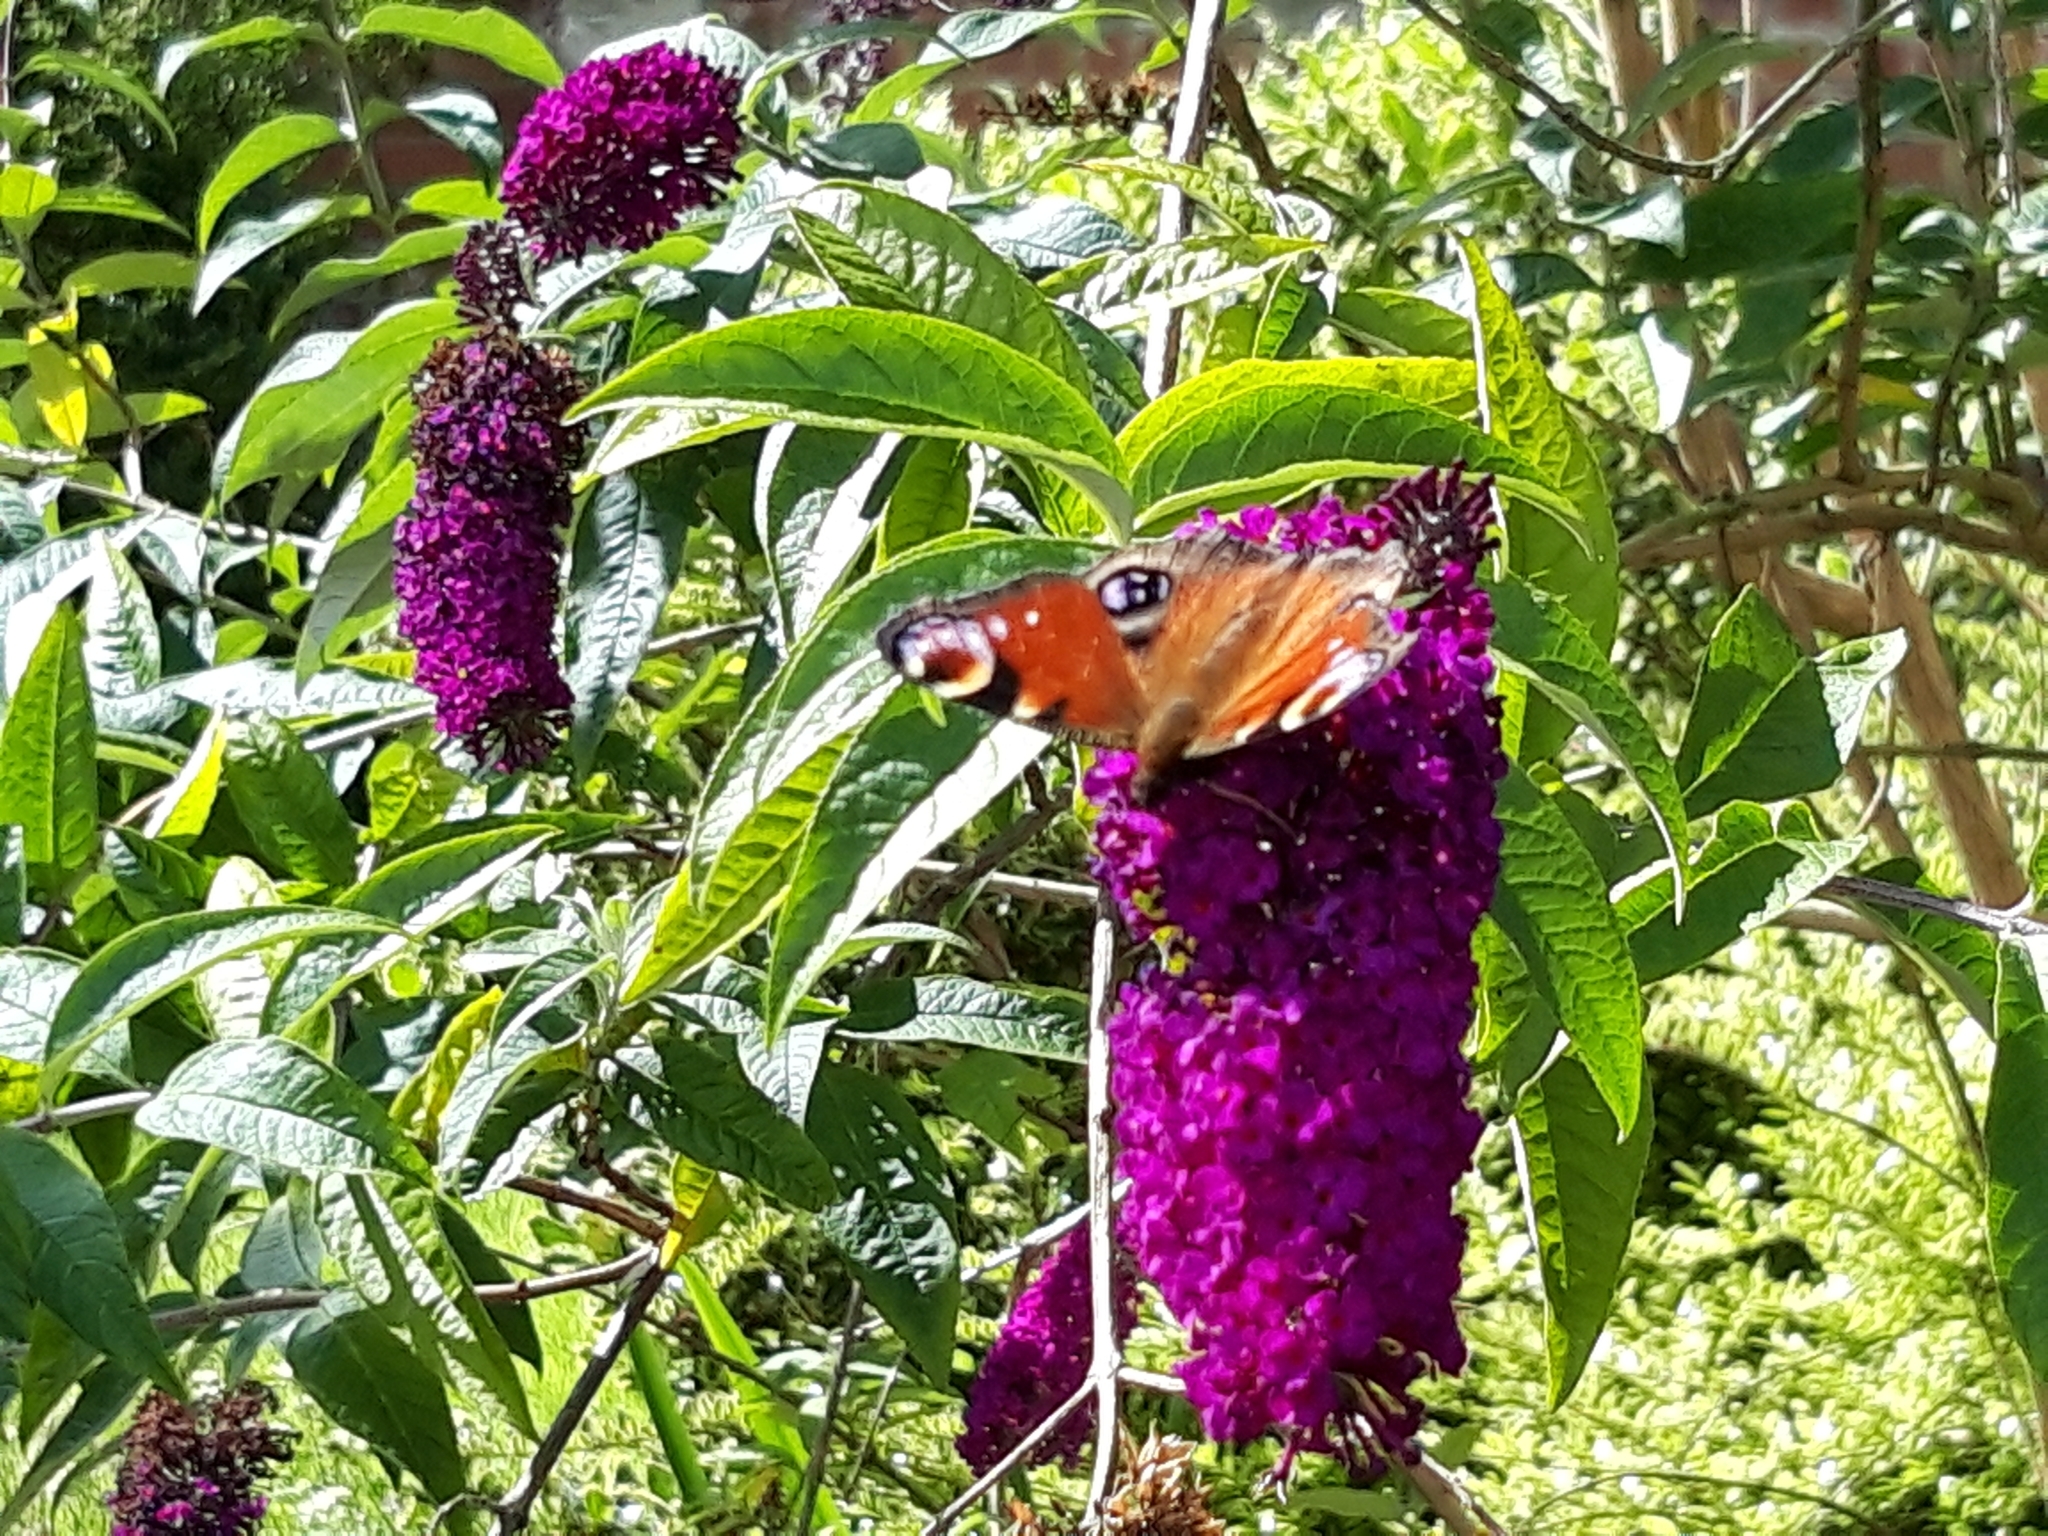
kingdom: Animalia
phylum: Arthropoda
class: Insecta
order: Lepidoptera
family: Nymphalidae
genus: Aglais
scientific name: Aglais io
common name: Peacock
